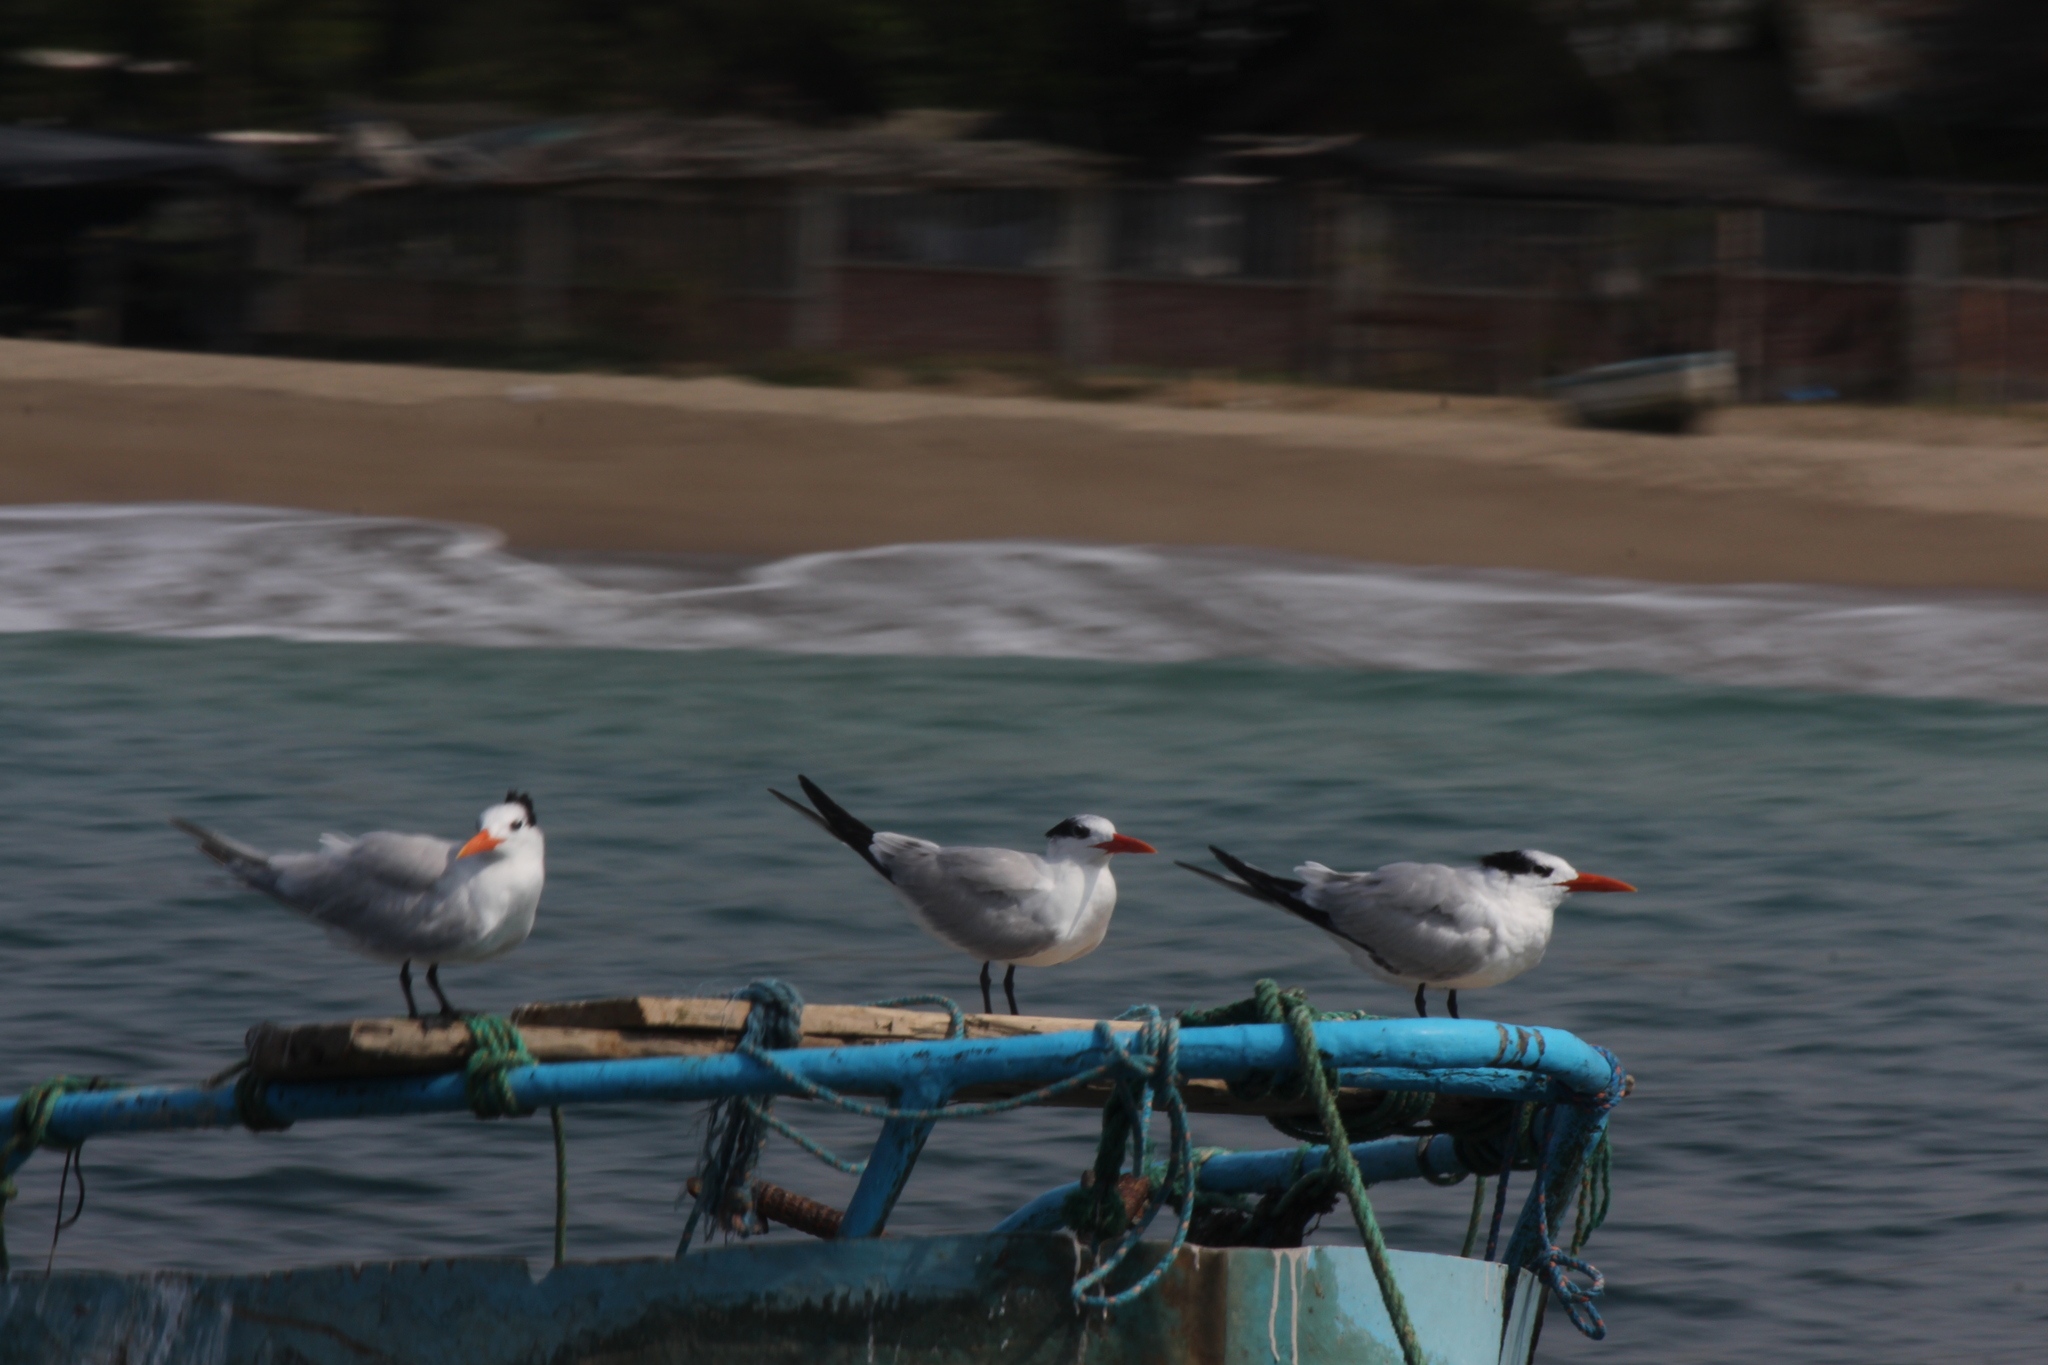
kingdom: Animalia
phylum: Chordata
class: Aves
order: Charadriiformes
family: Laridae
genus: Thalasseus
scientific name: Thalasseus maximus
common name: Royal tern
